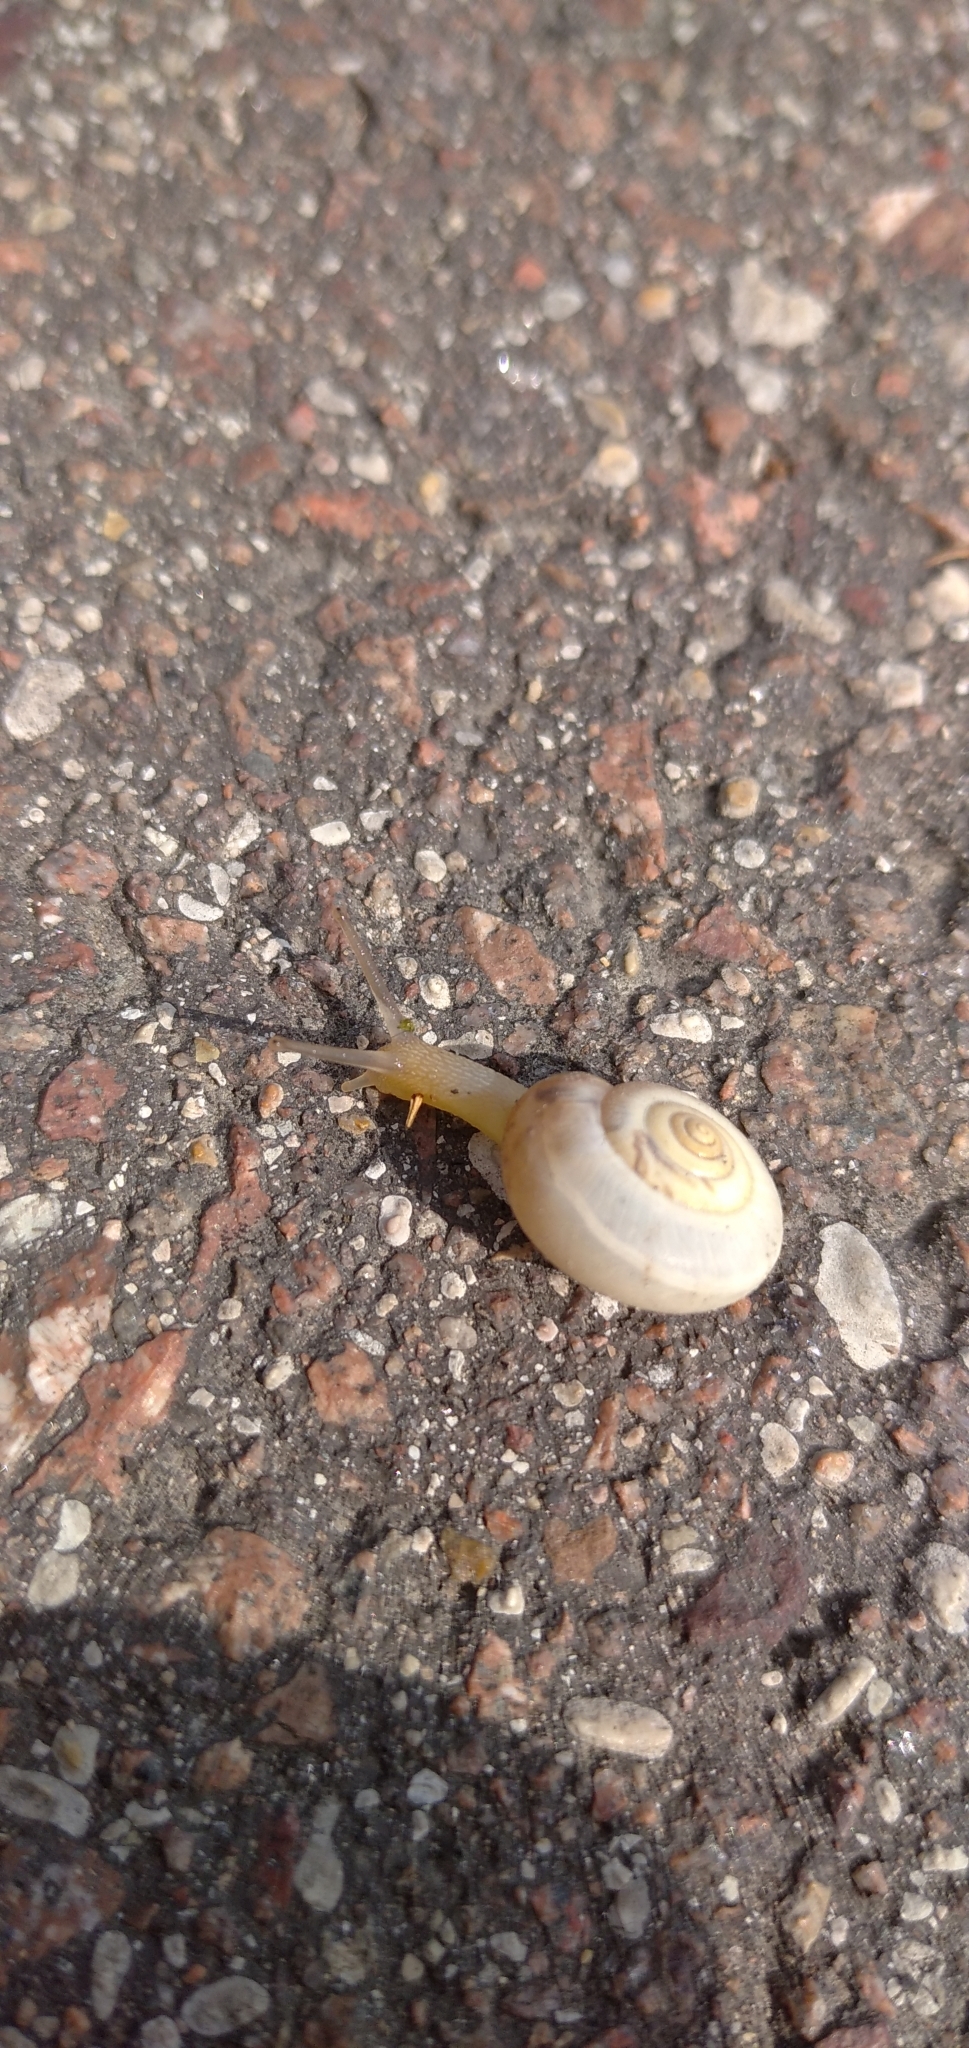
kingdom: Animalia
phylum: Mollusca
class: Gastropoda
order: Stylommatophora
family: Hygromiidae
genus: Monacha
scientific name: Monacha cartusiana
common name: Carthusian snail
